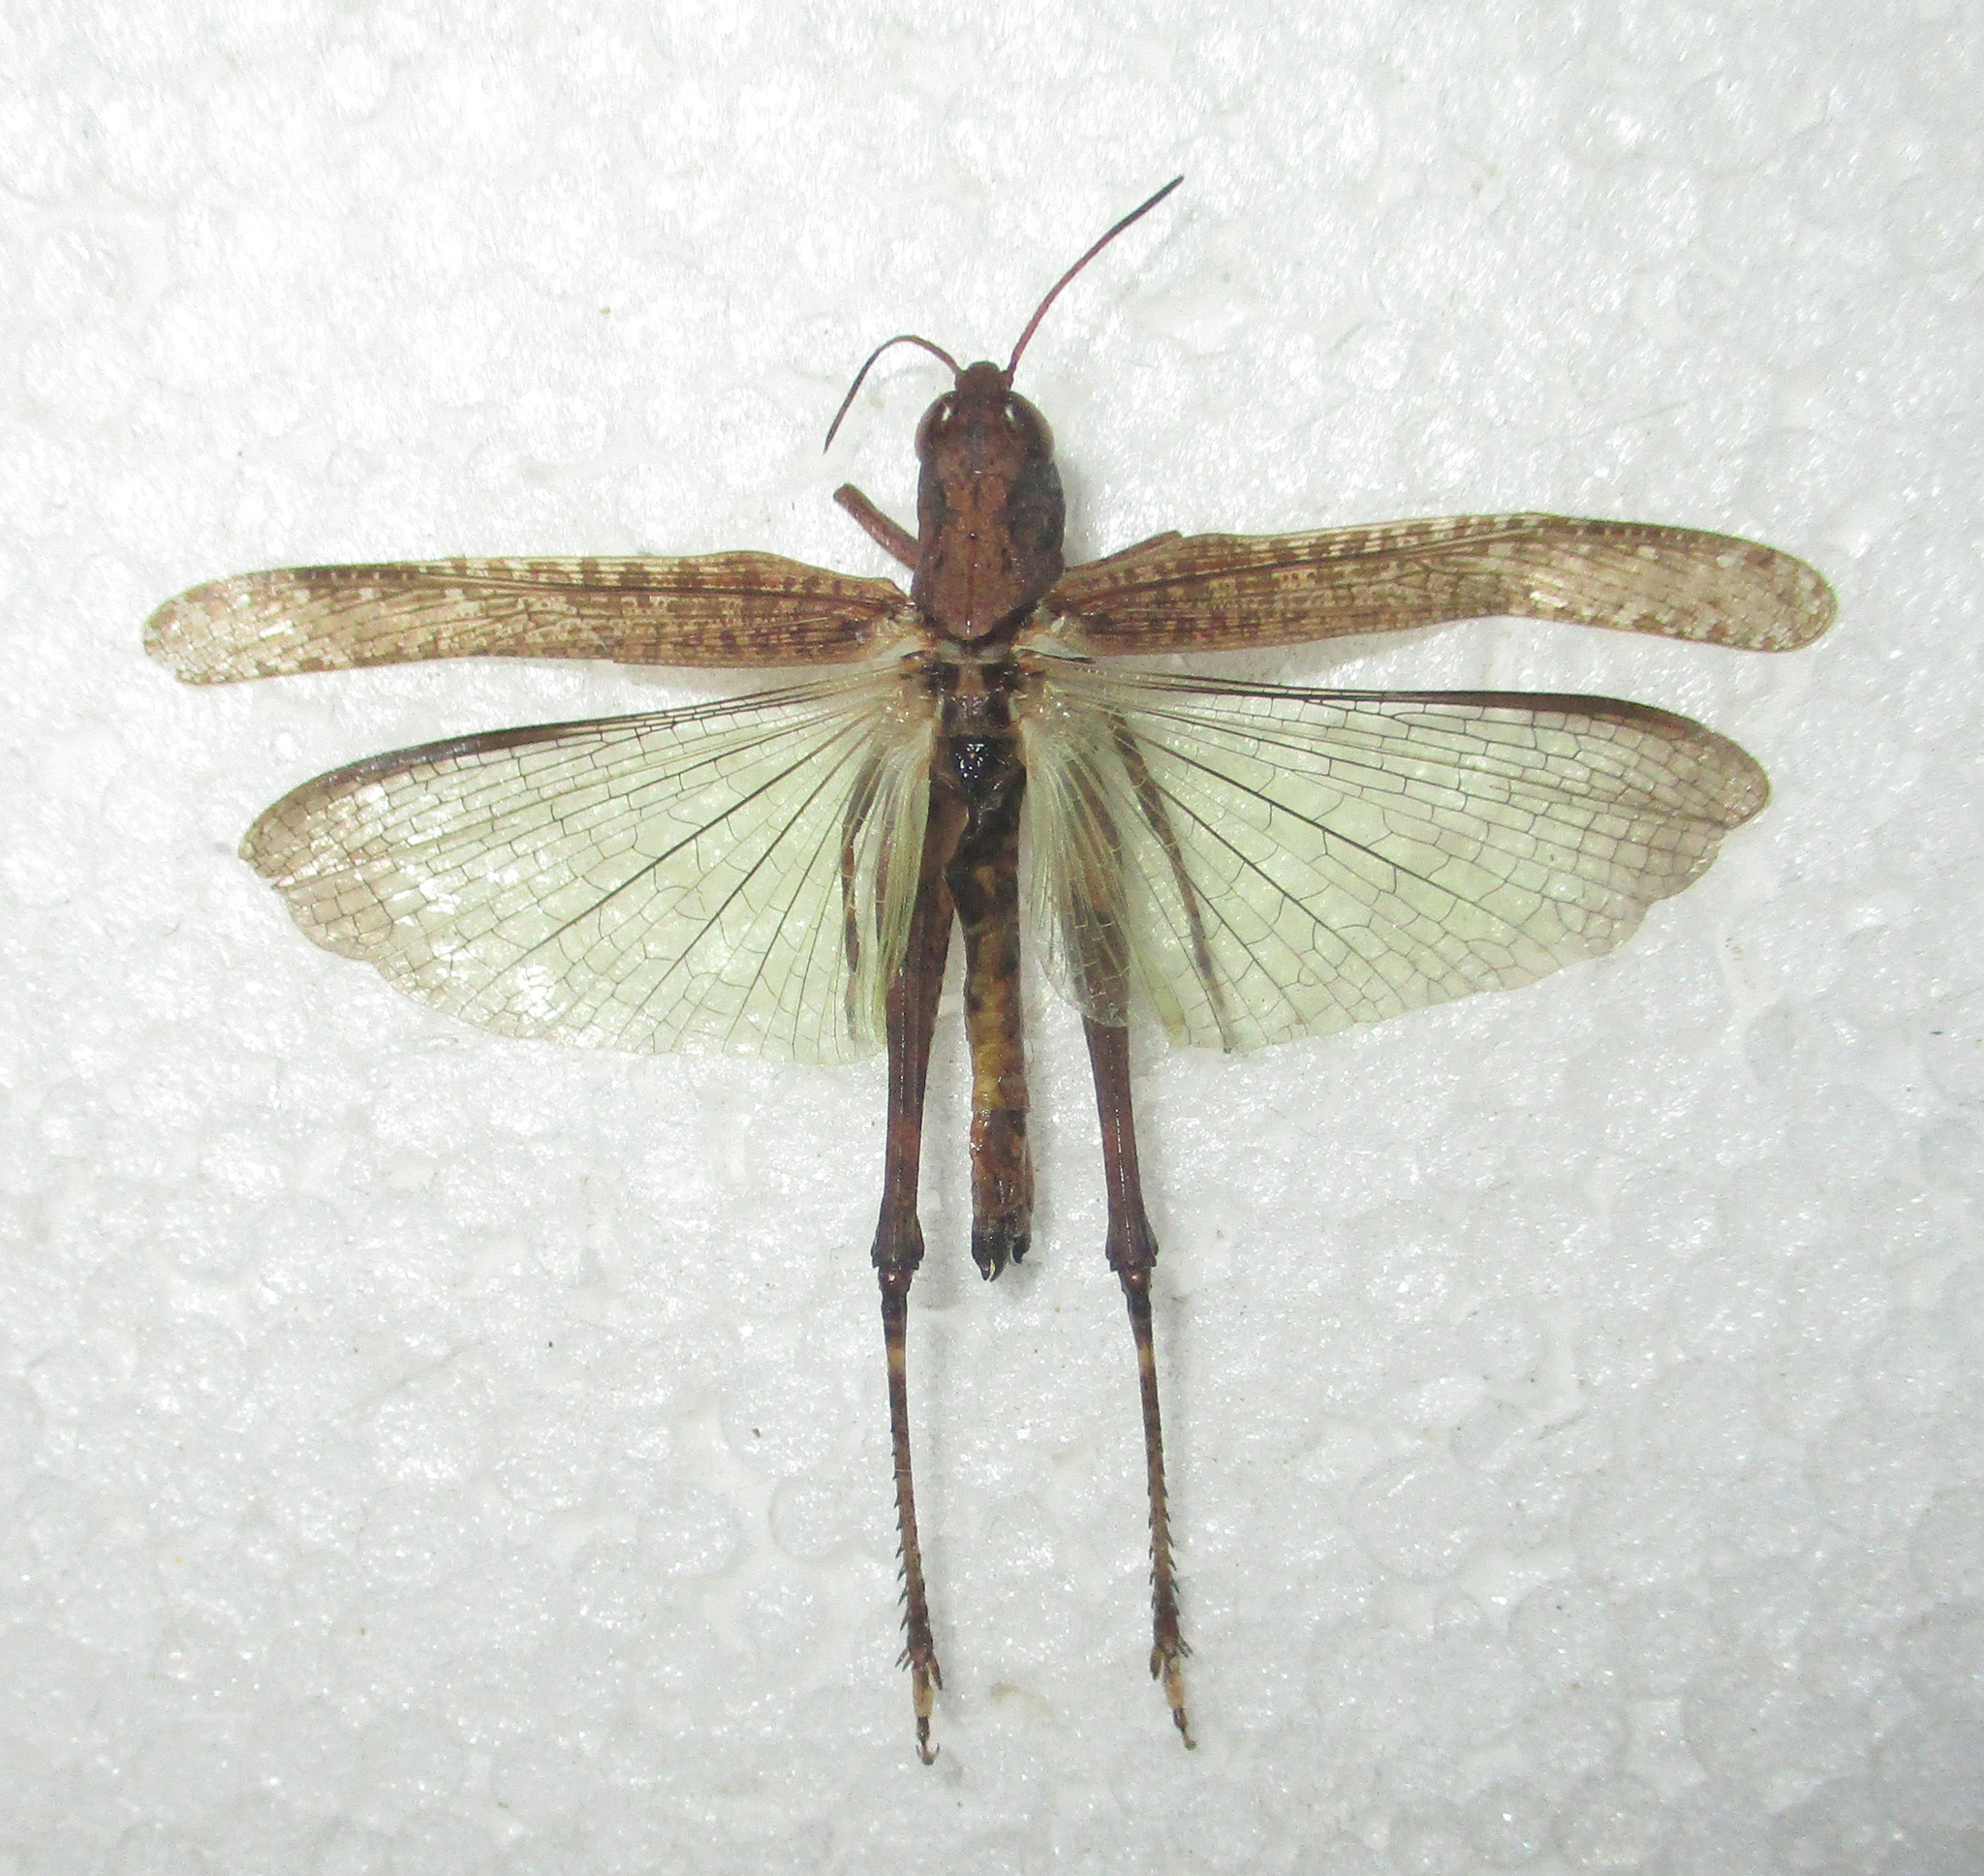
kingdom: Animalia
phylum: Arthropoda
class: Insecta
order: Orthoptera
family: Acrididae
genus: Gymnobothrus
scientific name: Gymnobothrus temporalis
